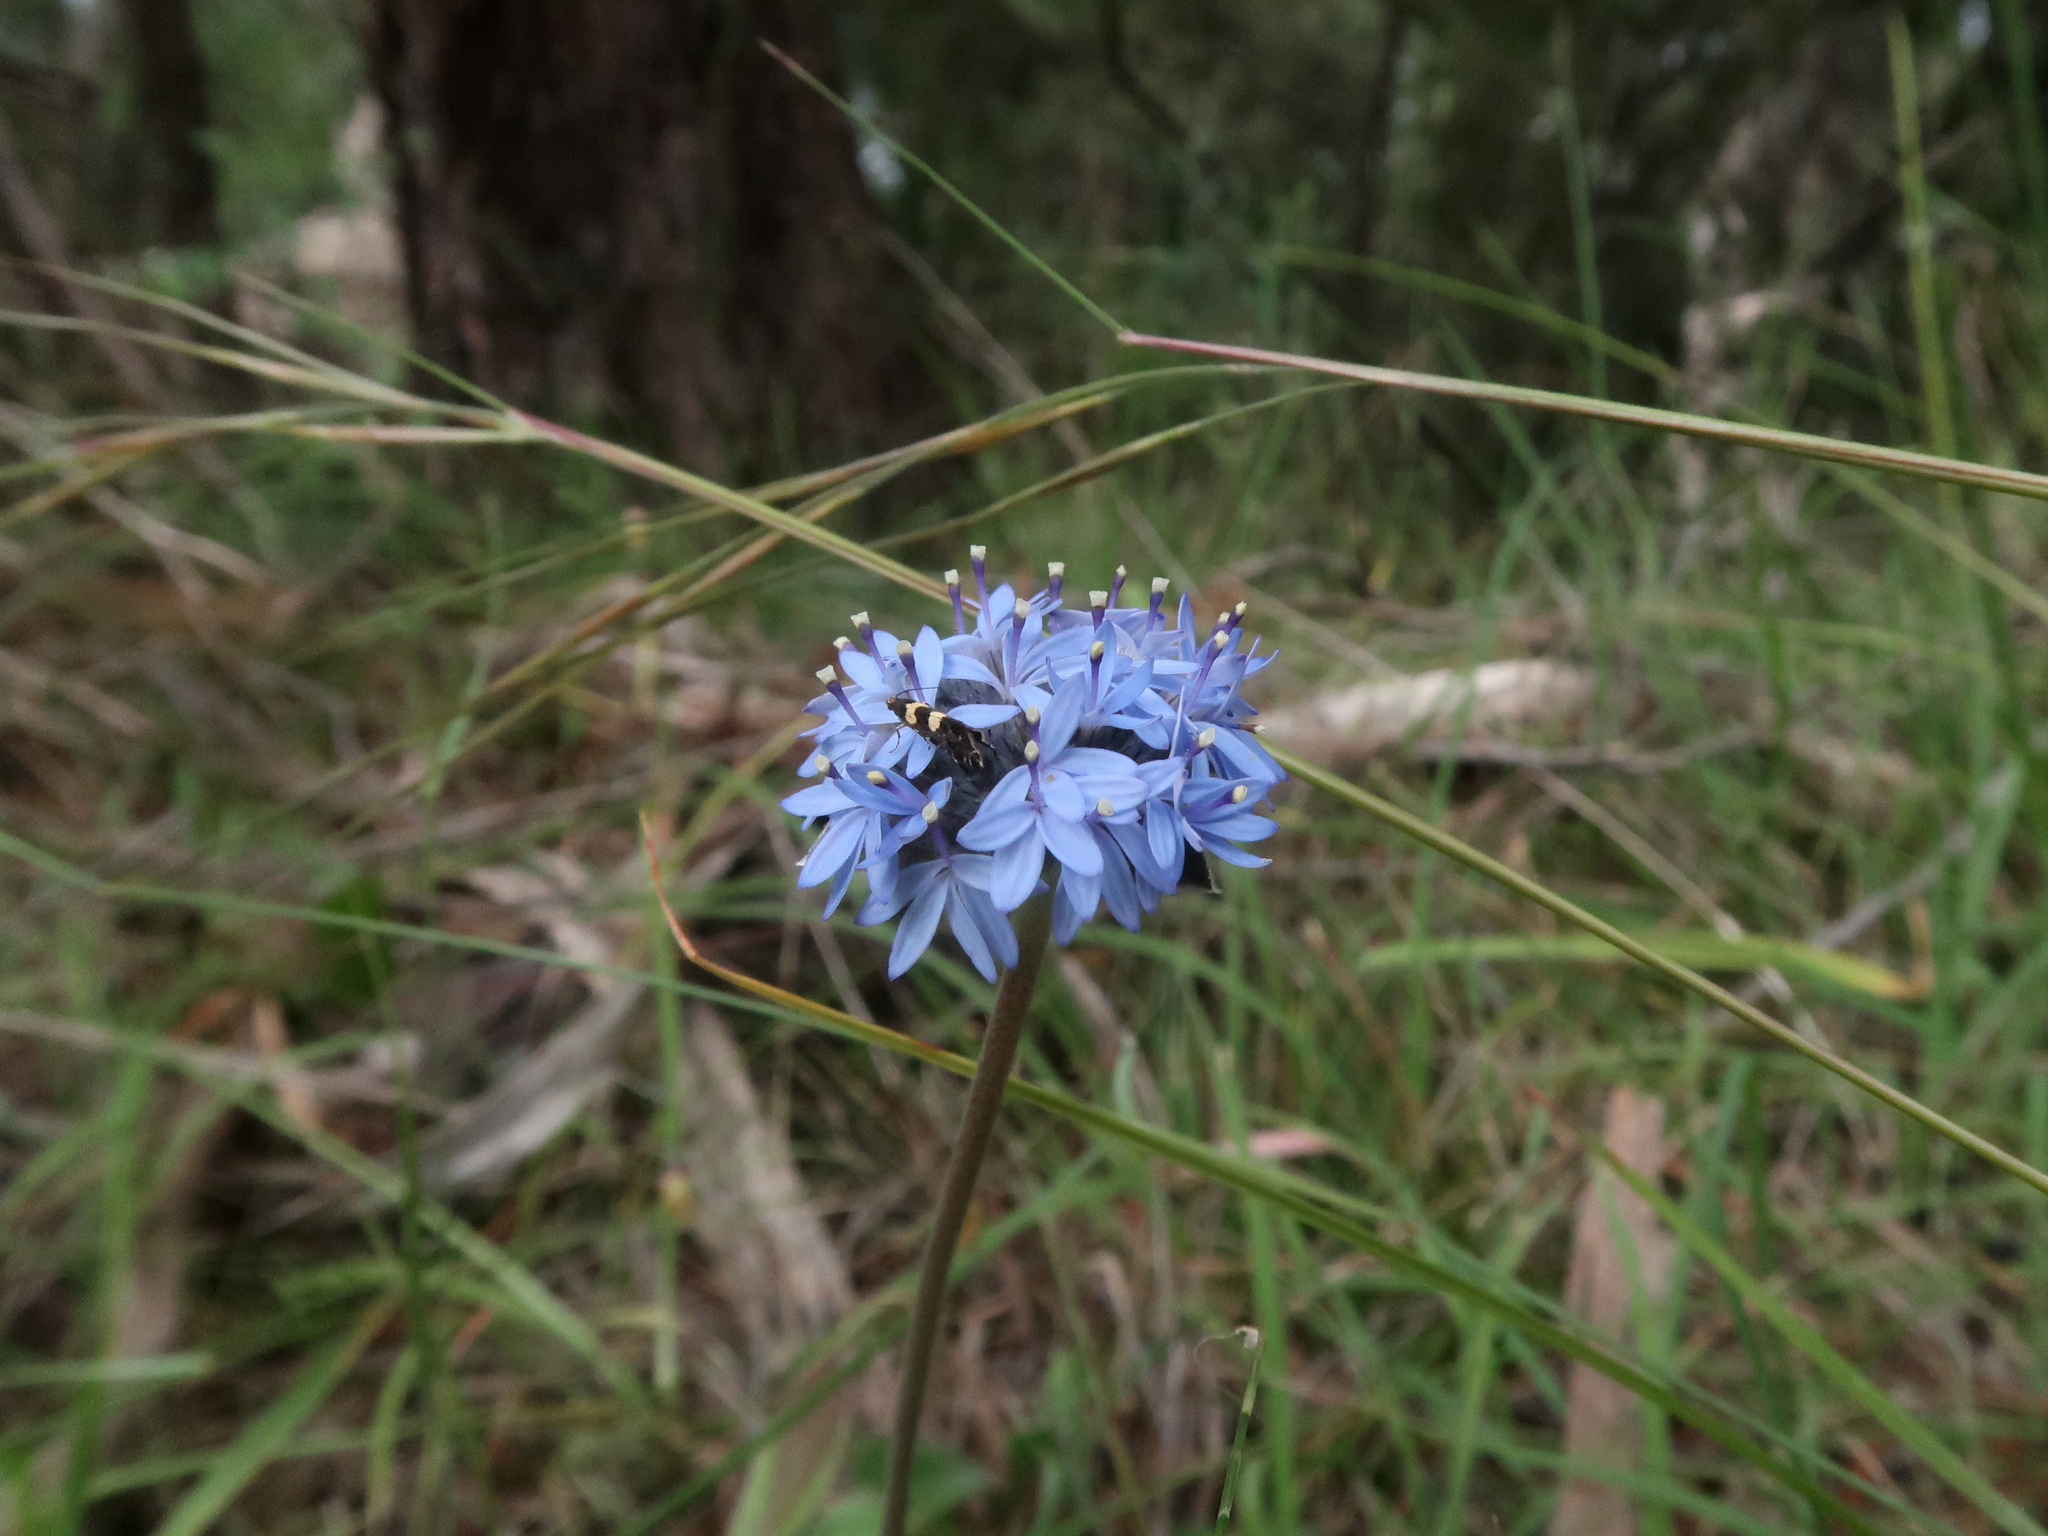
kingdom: Plantae
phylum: Tracheophyta
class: Magnoliopsida
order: Asterales
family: Goodeniaceae
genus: Brunonia
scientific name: Brunonia australis
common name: Blue pincushion
